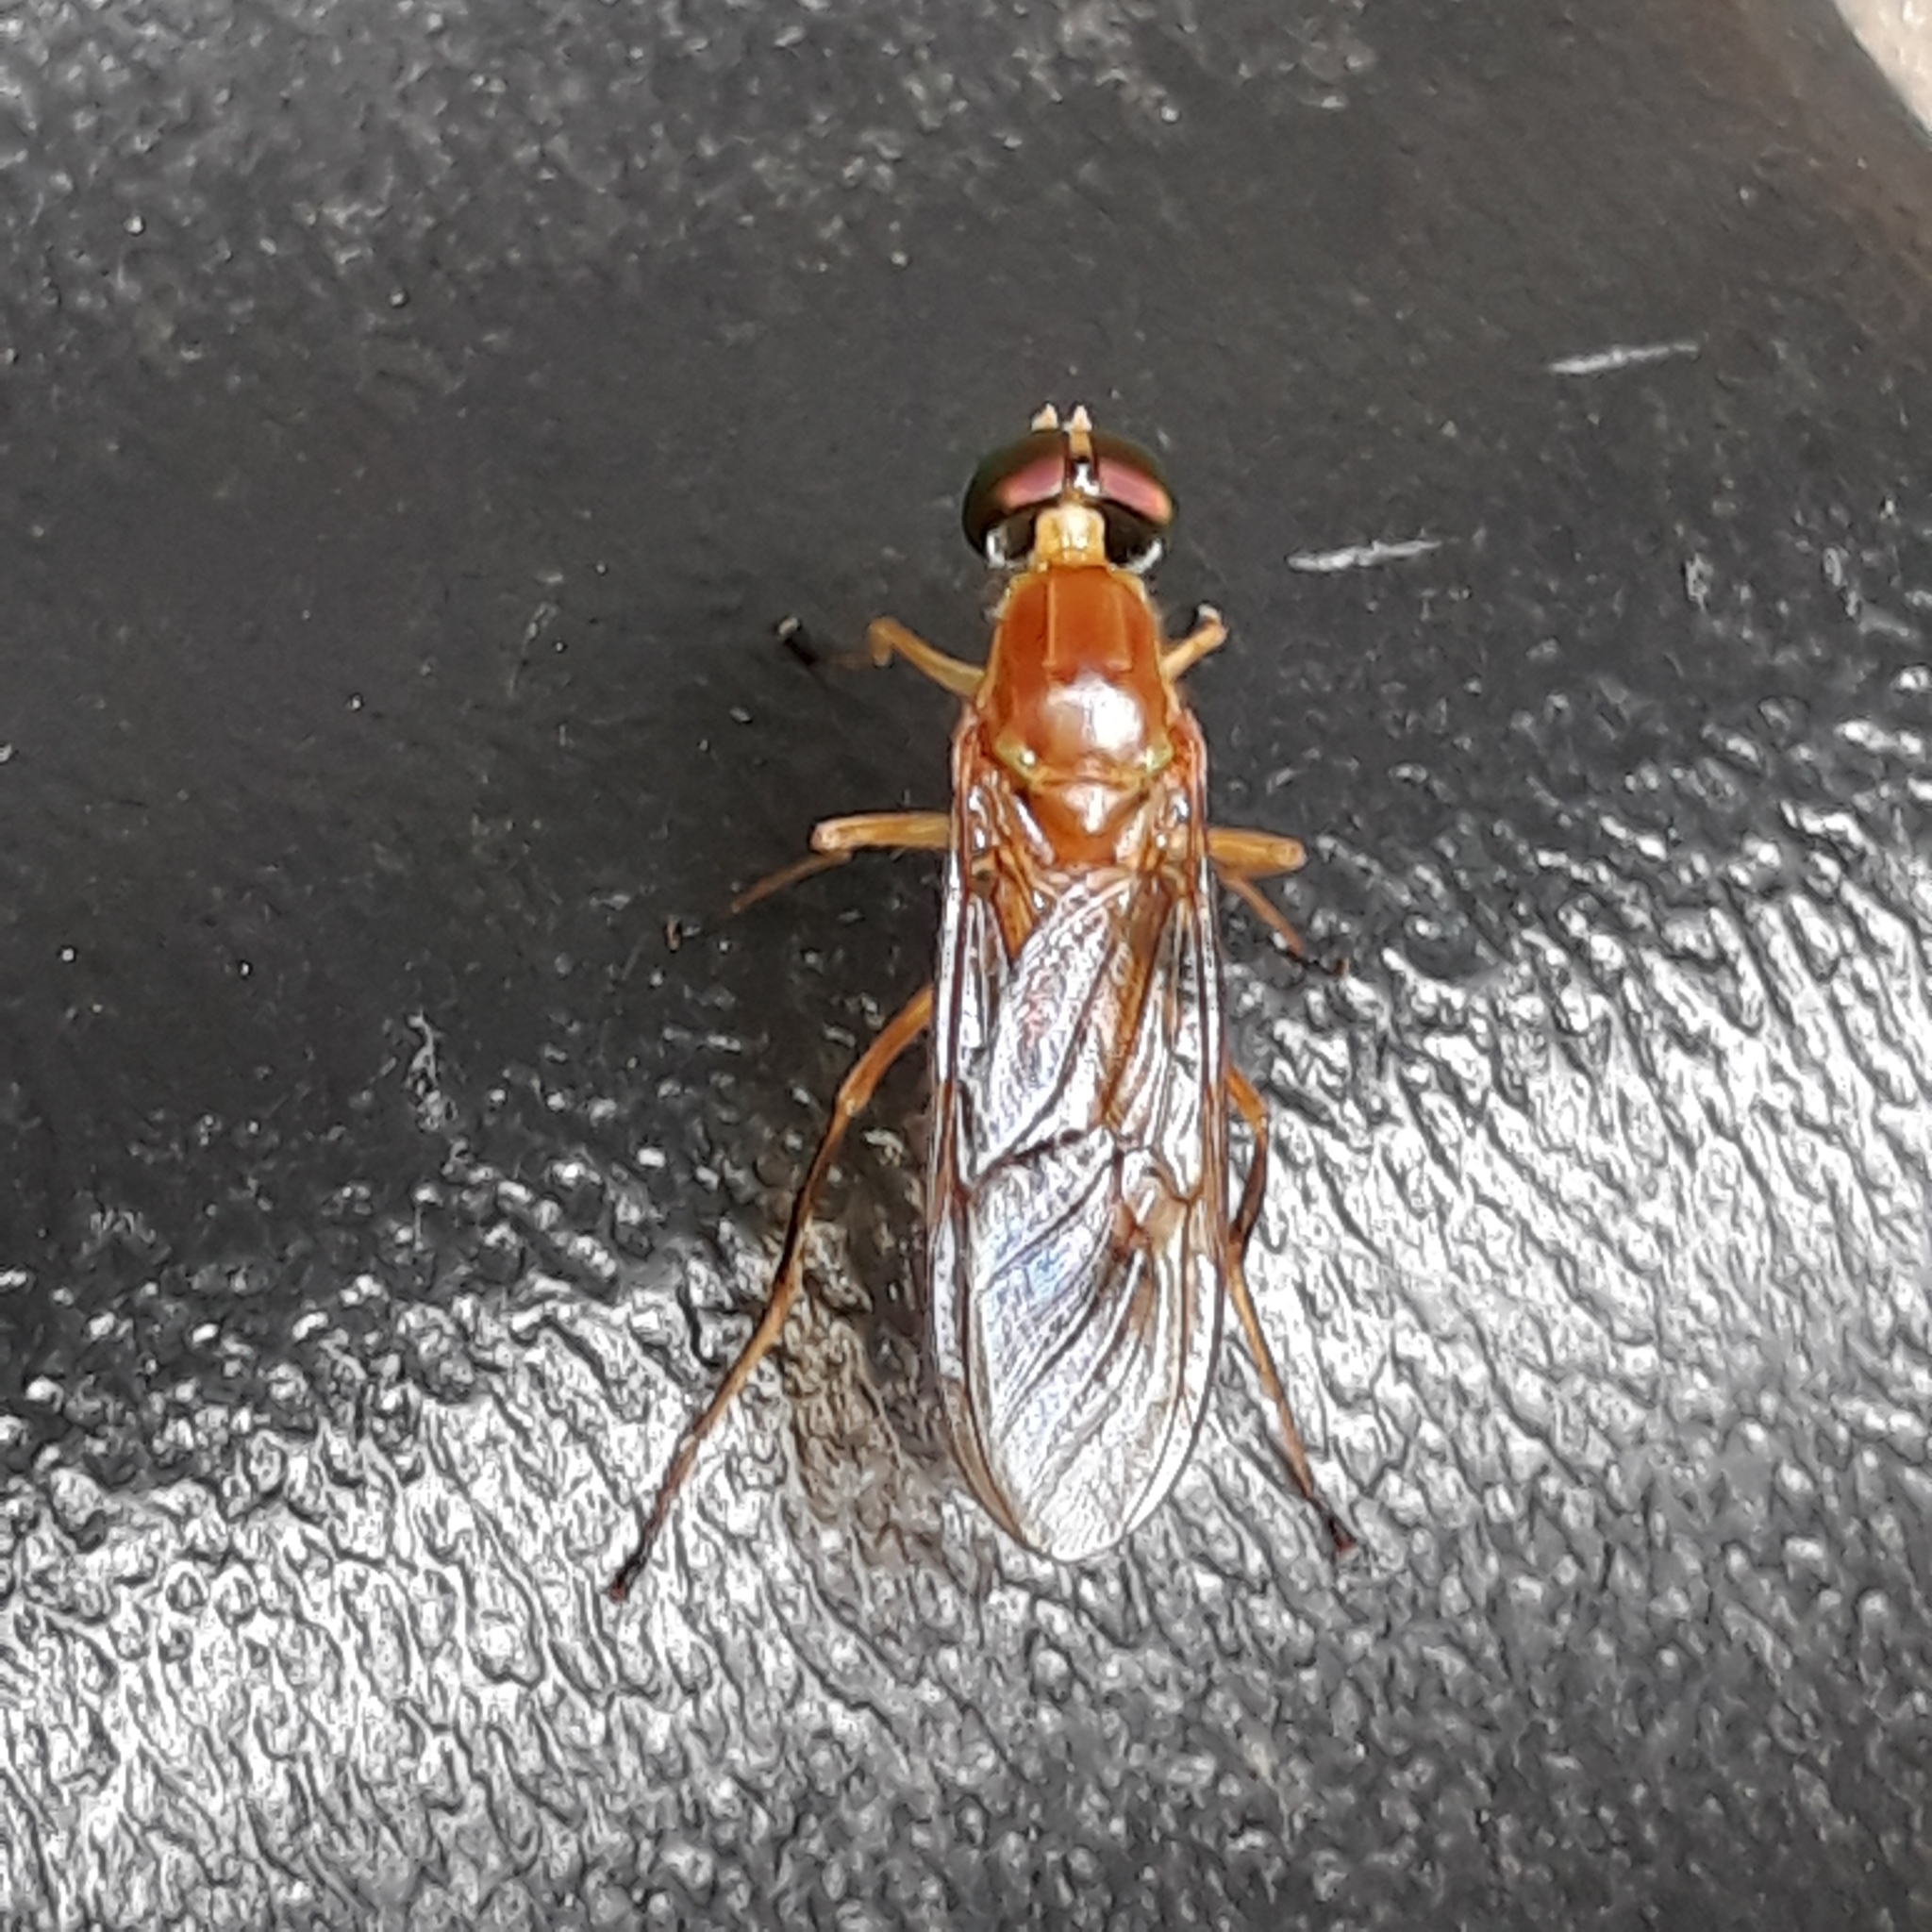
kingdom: Animalia
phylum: Arthropoda
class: Insecta
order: Diptera
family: Stratiomyidae
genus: Ptecticus
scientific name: Ptecticus trivittatus
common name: Compost fly
